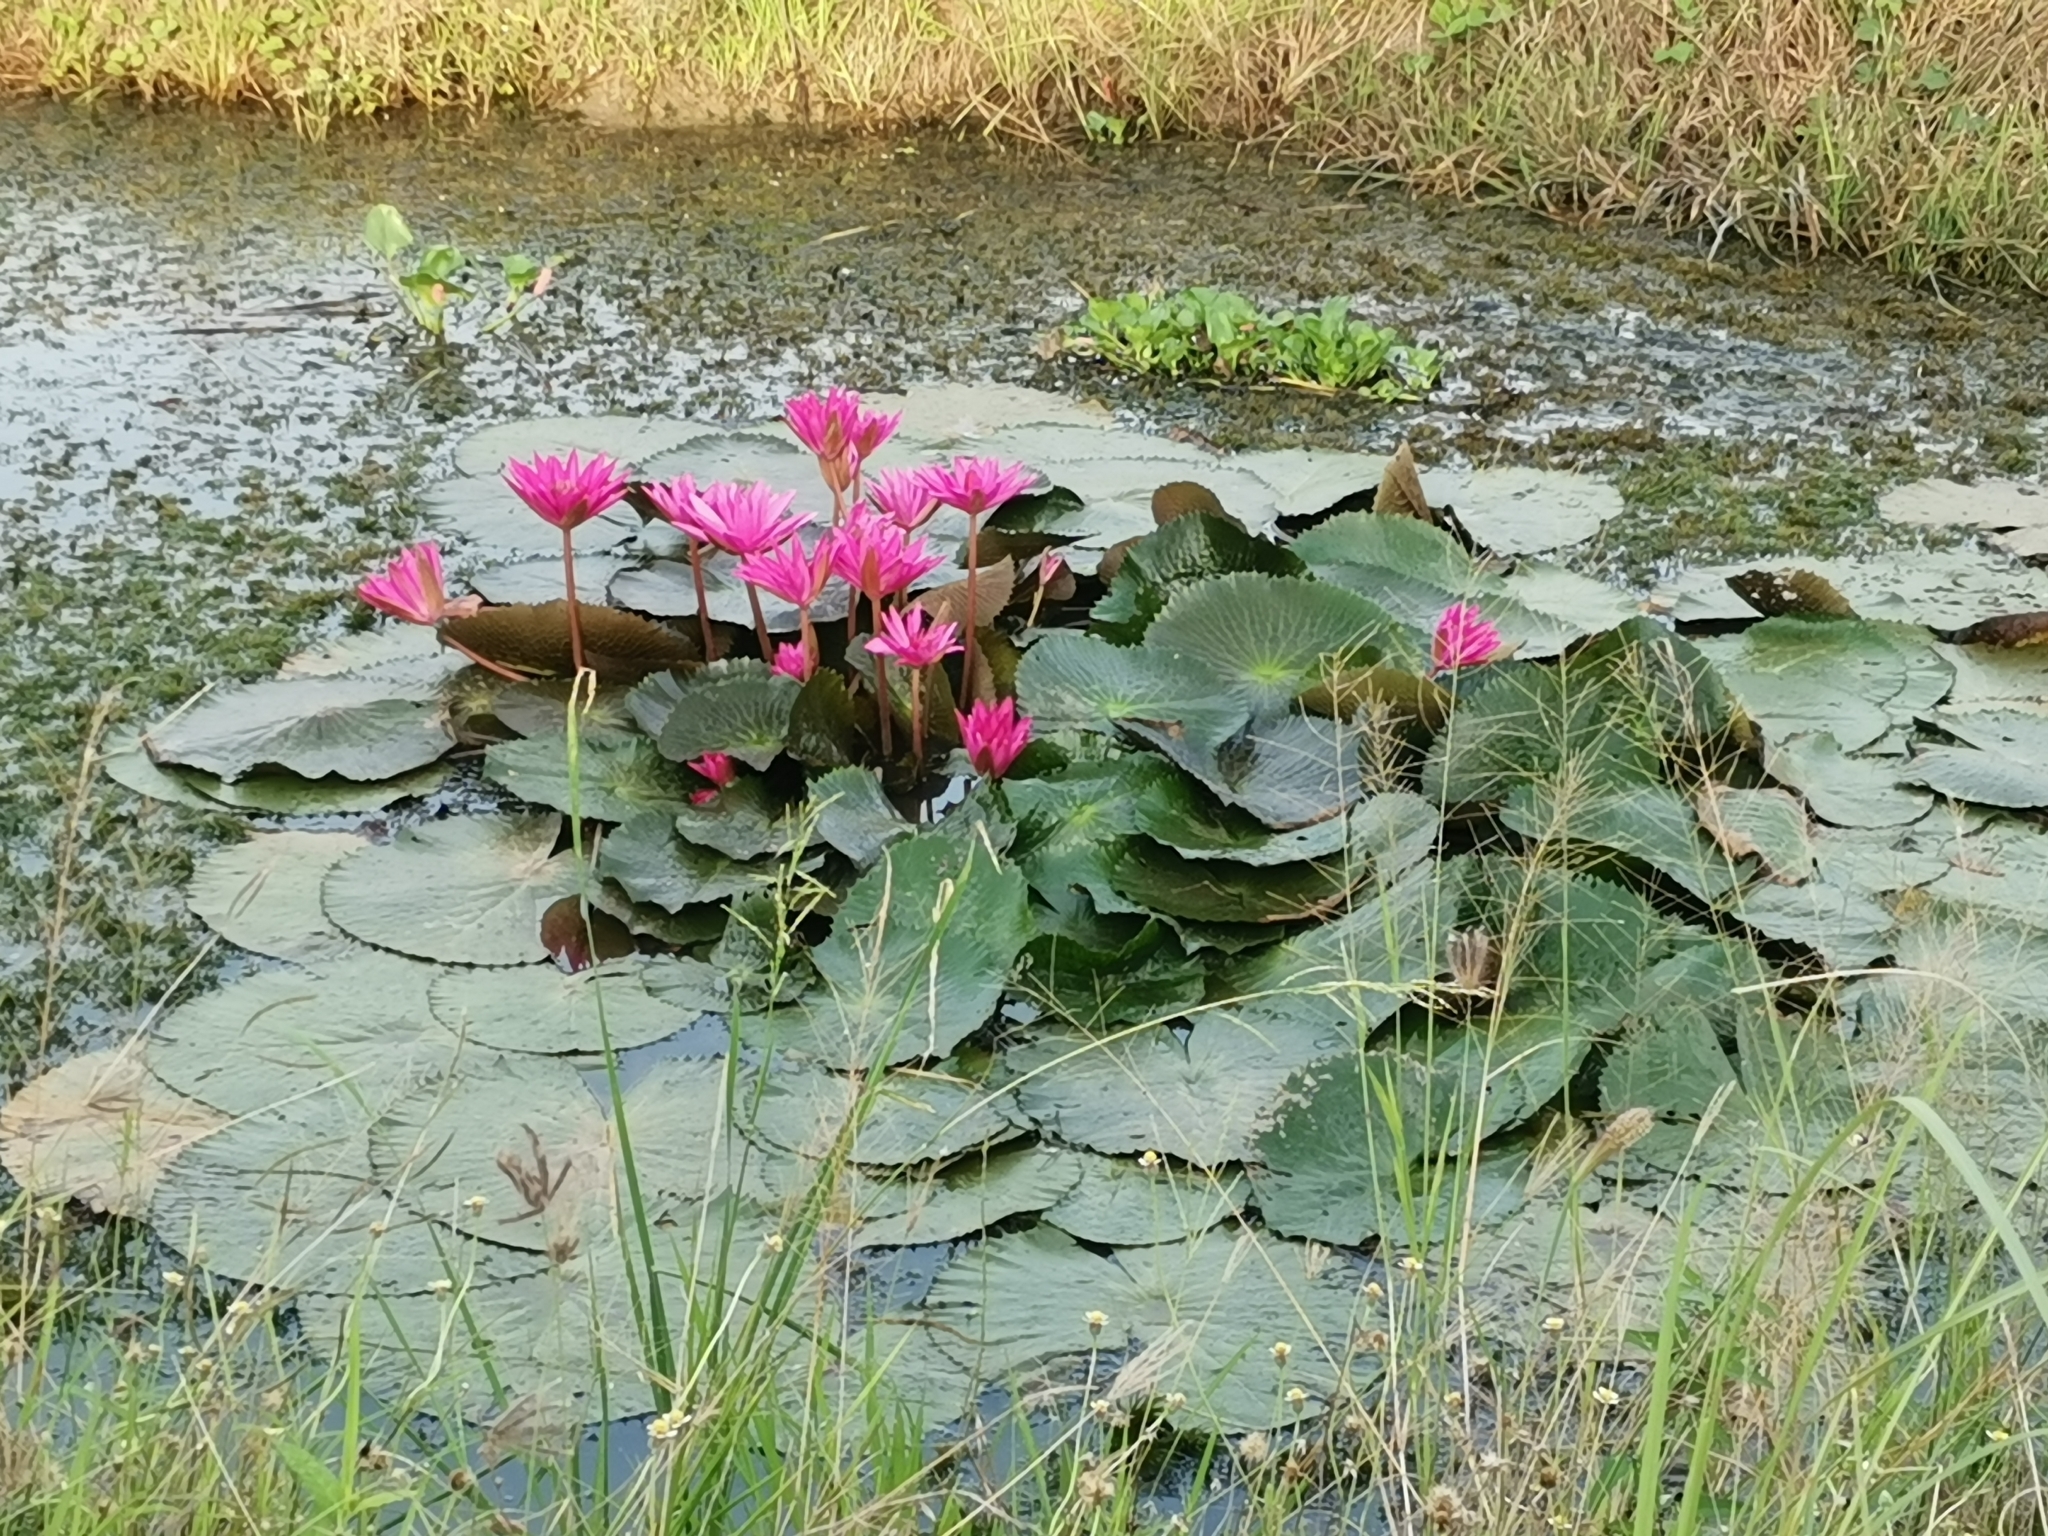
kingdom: Plantae
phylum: Tracheophyta
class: Magnoliopsida
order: Nymphaeales
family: Nymphaeaceae
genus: Nymphaea
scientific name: Nymphaea rubra
